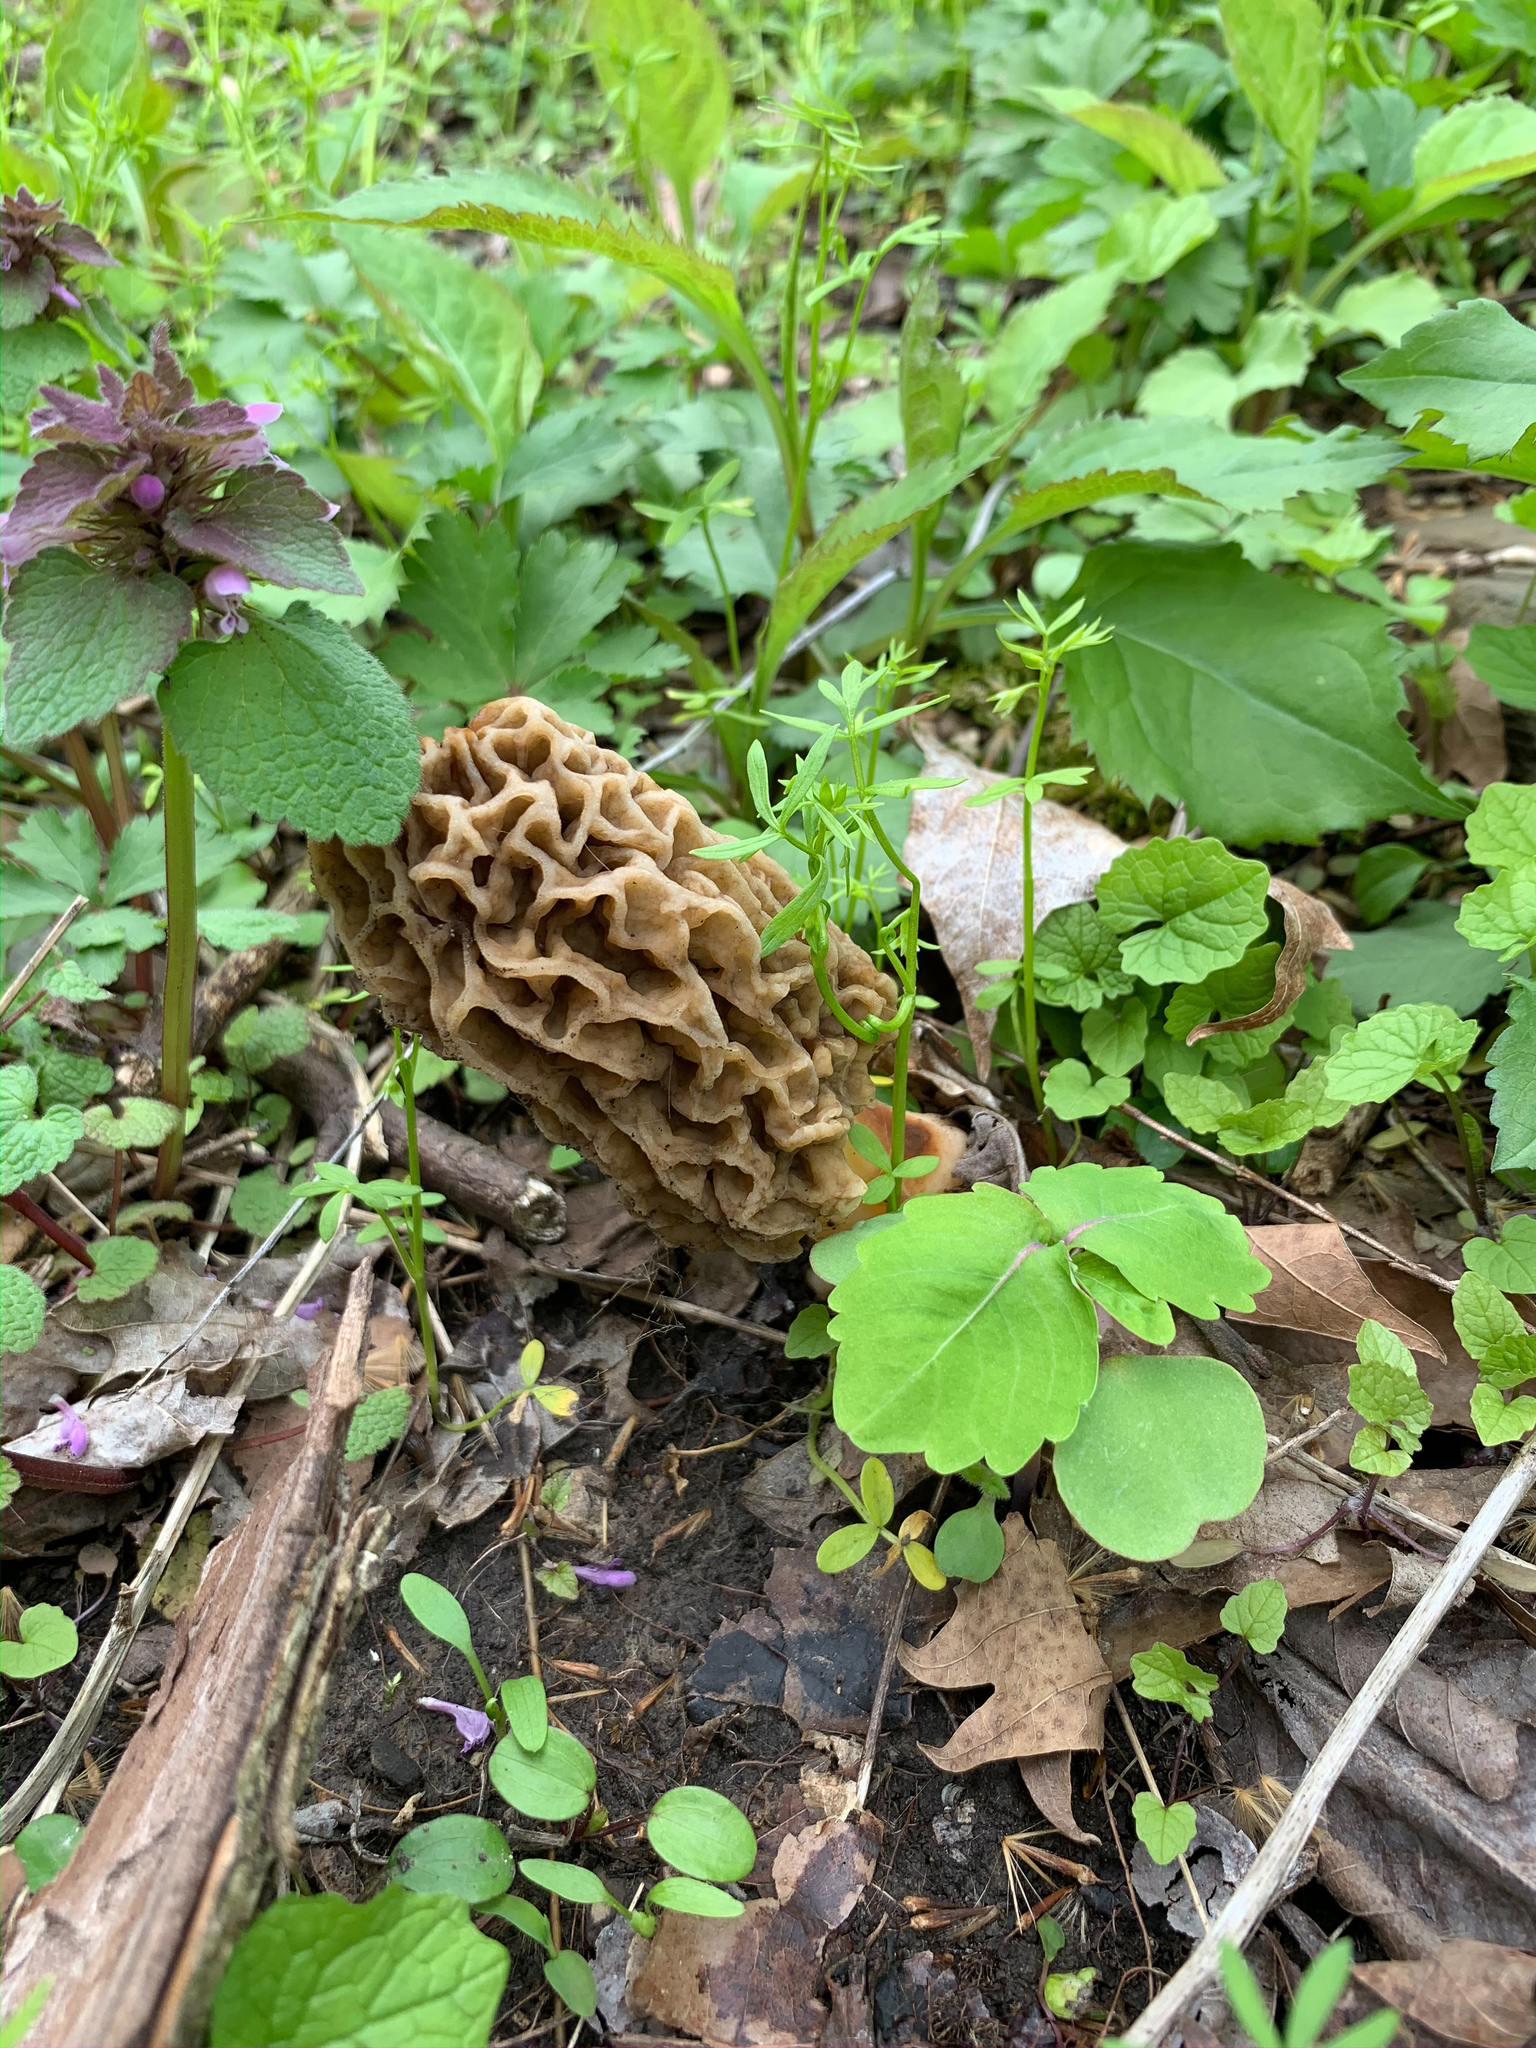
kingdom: Fungi
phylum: Ascomycota
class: Pezizomycetes
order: Pezizales
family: Morchellaceae
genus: Morchella
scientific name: Morchella americana
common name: White morel
